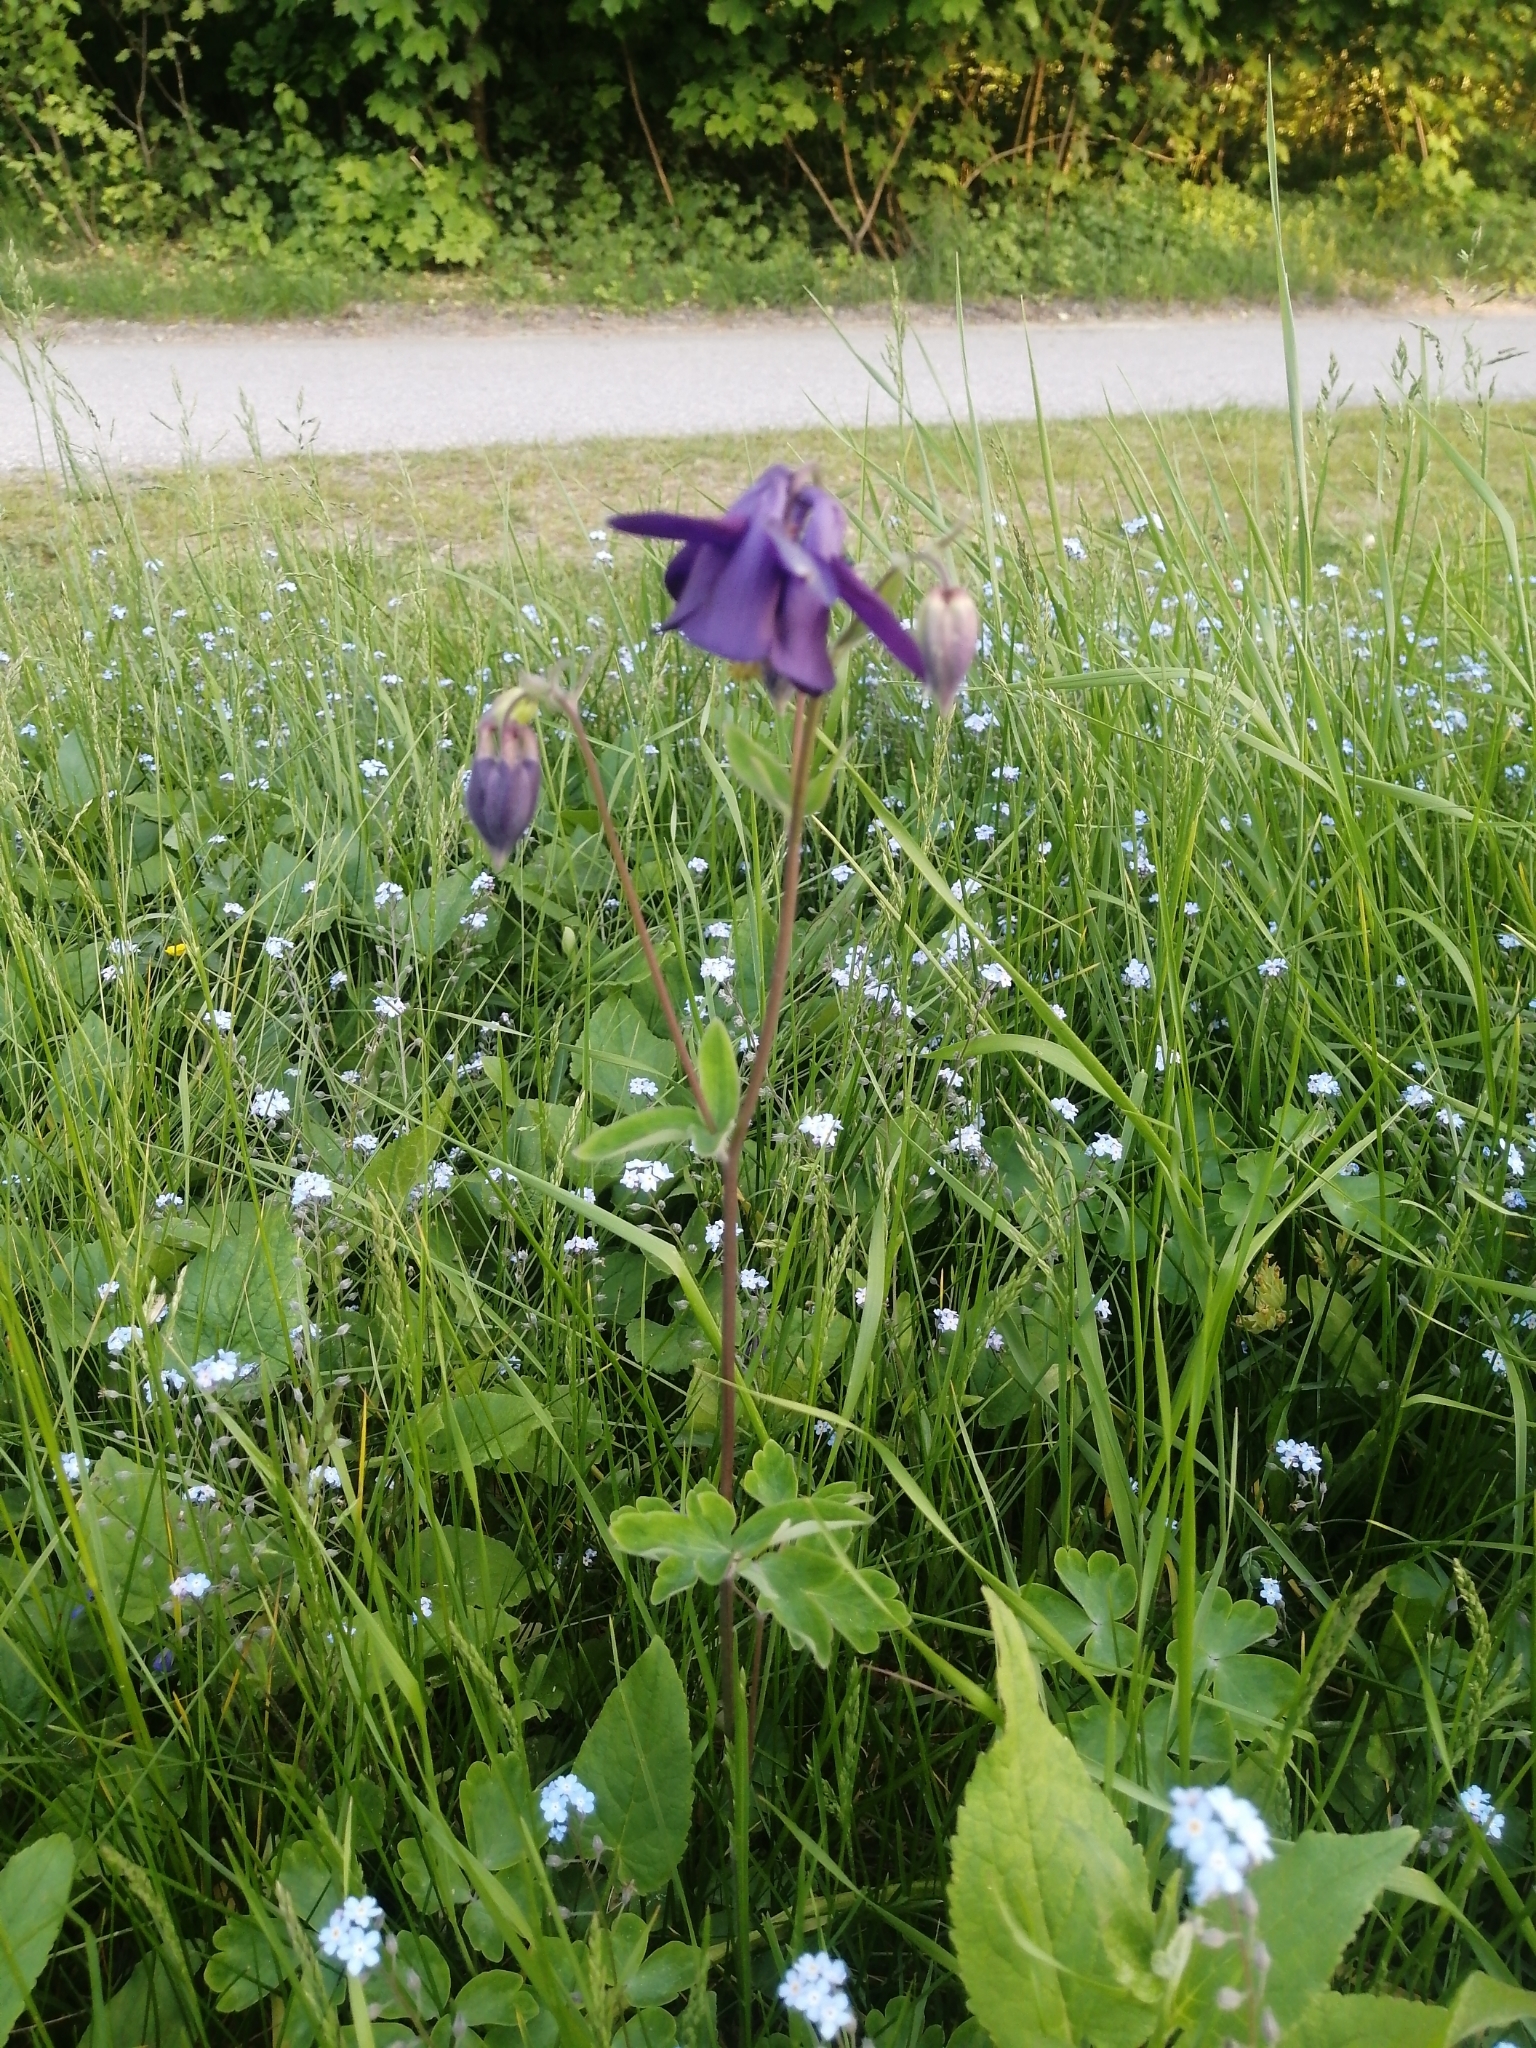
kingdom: Plantae
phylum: Tracheophyta
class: Magnoliopsida
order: Ranunculales
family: Ranunculaceae
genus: Aquilegia
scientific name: Aquilegia vulgaris
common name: Columbine
